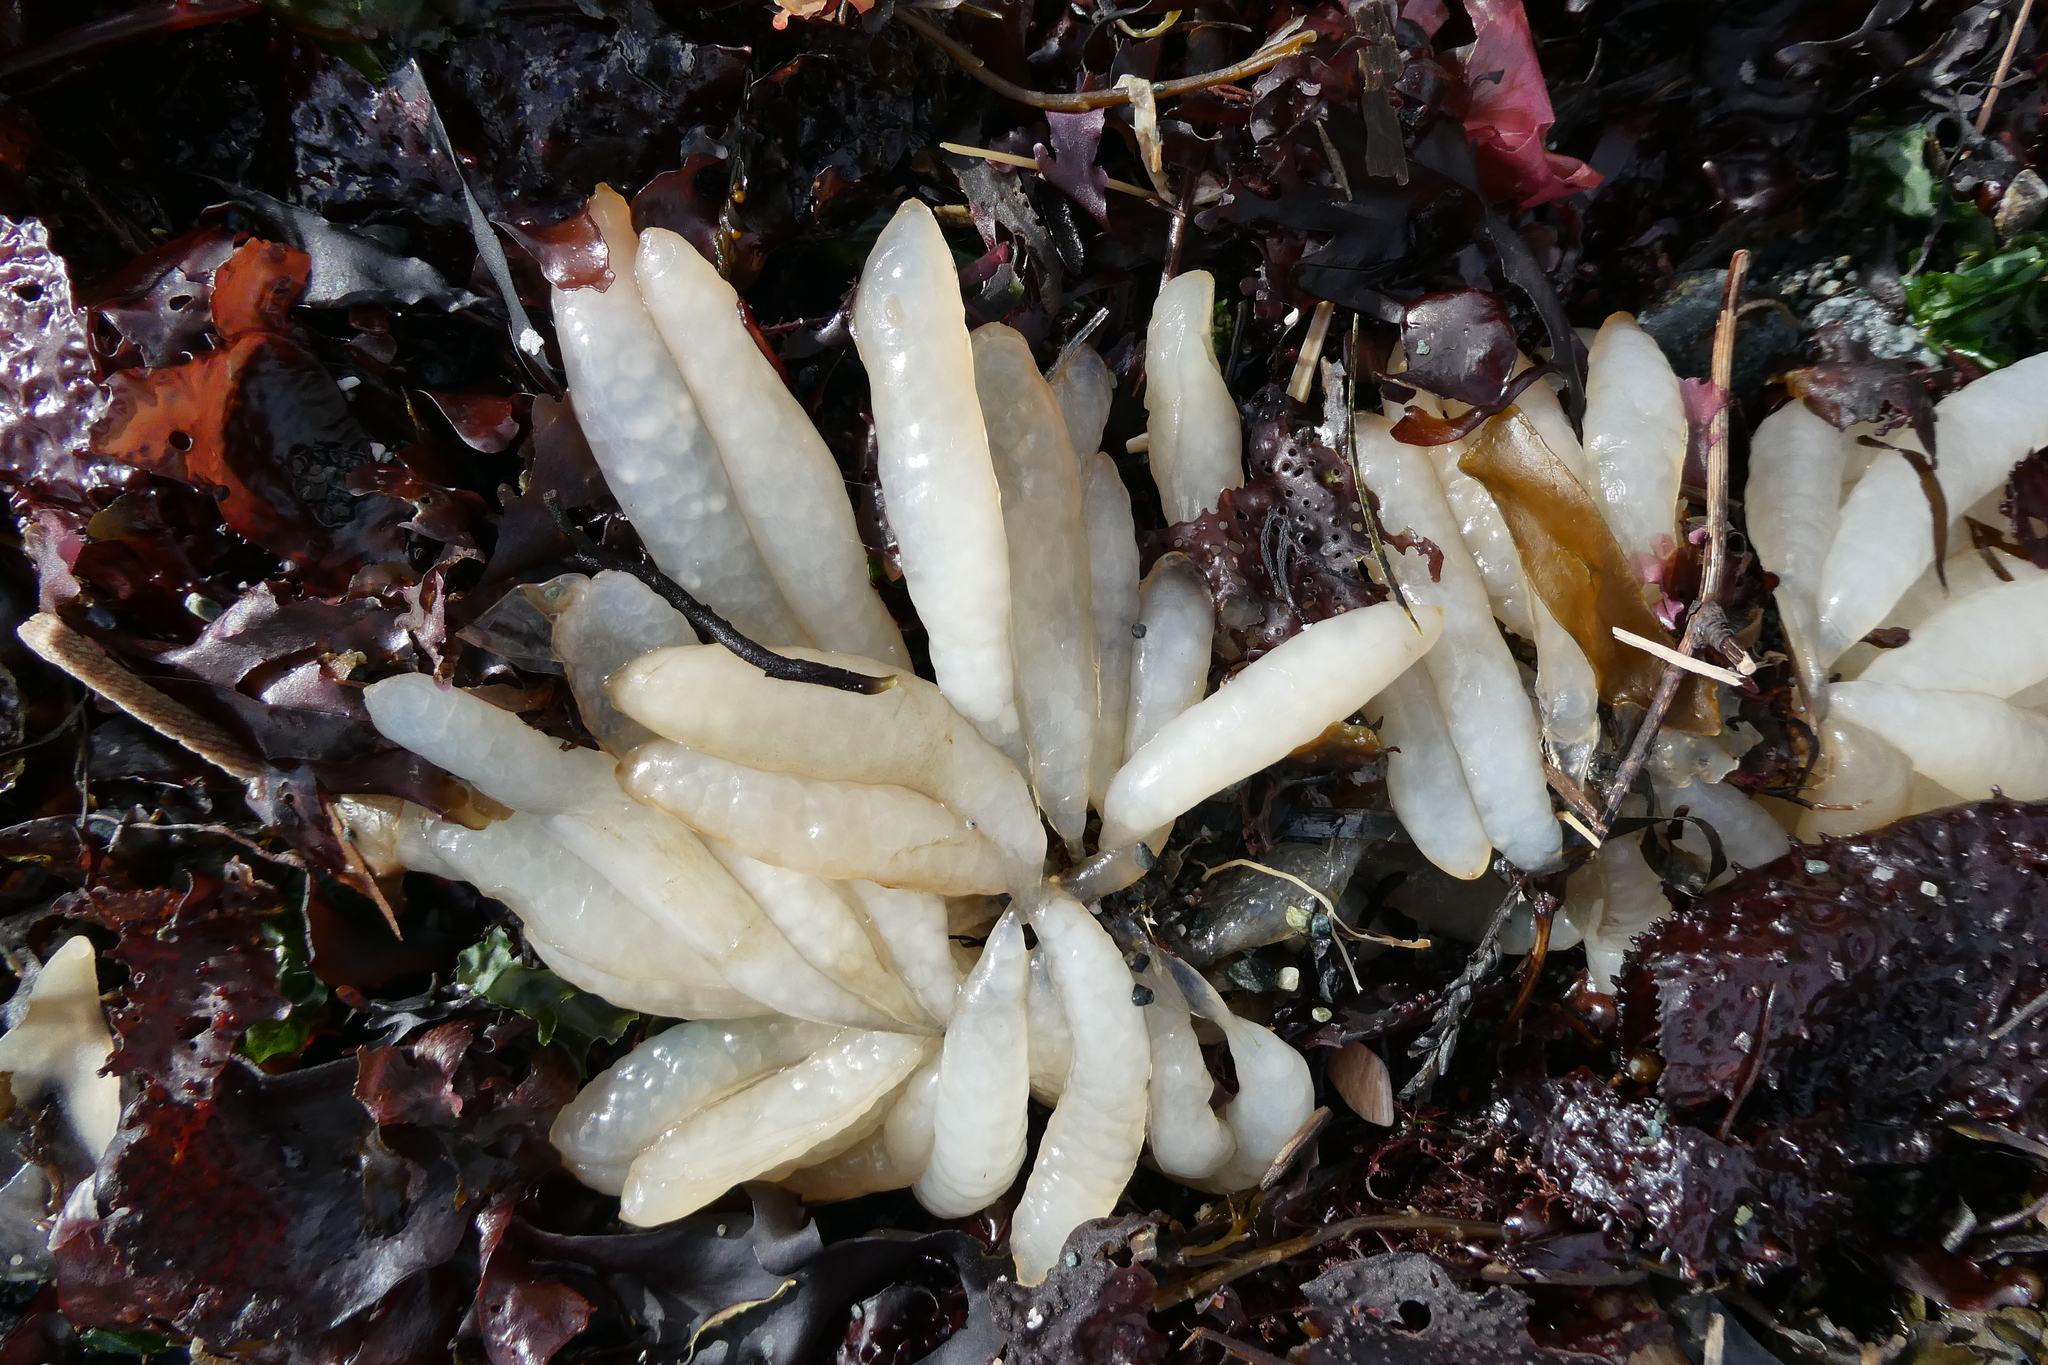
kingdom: Animalia
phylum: Mollusca
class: Cephalopoda
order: Myopsida
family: Loliginidae
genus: Doryteuthis
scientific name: Doryteuthis opalescens
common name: Opalescent inshore squid
